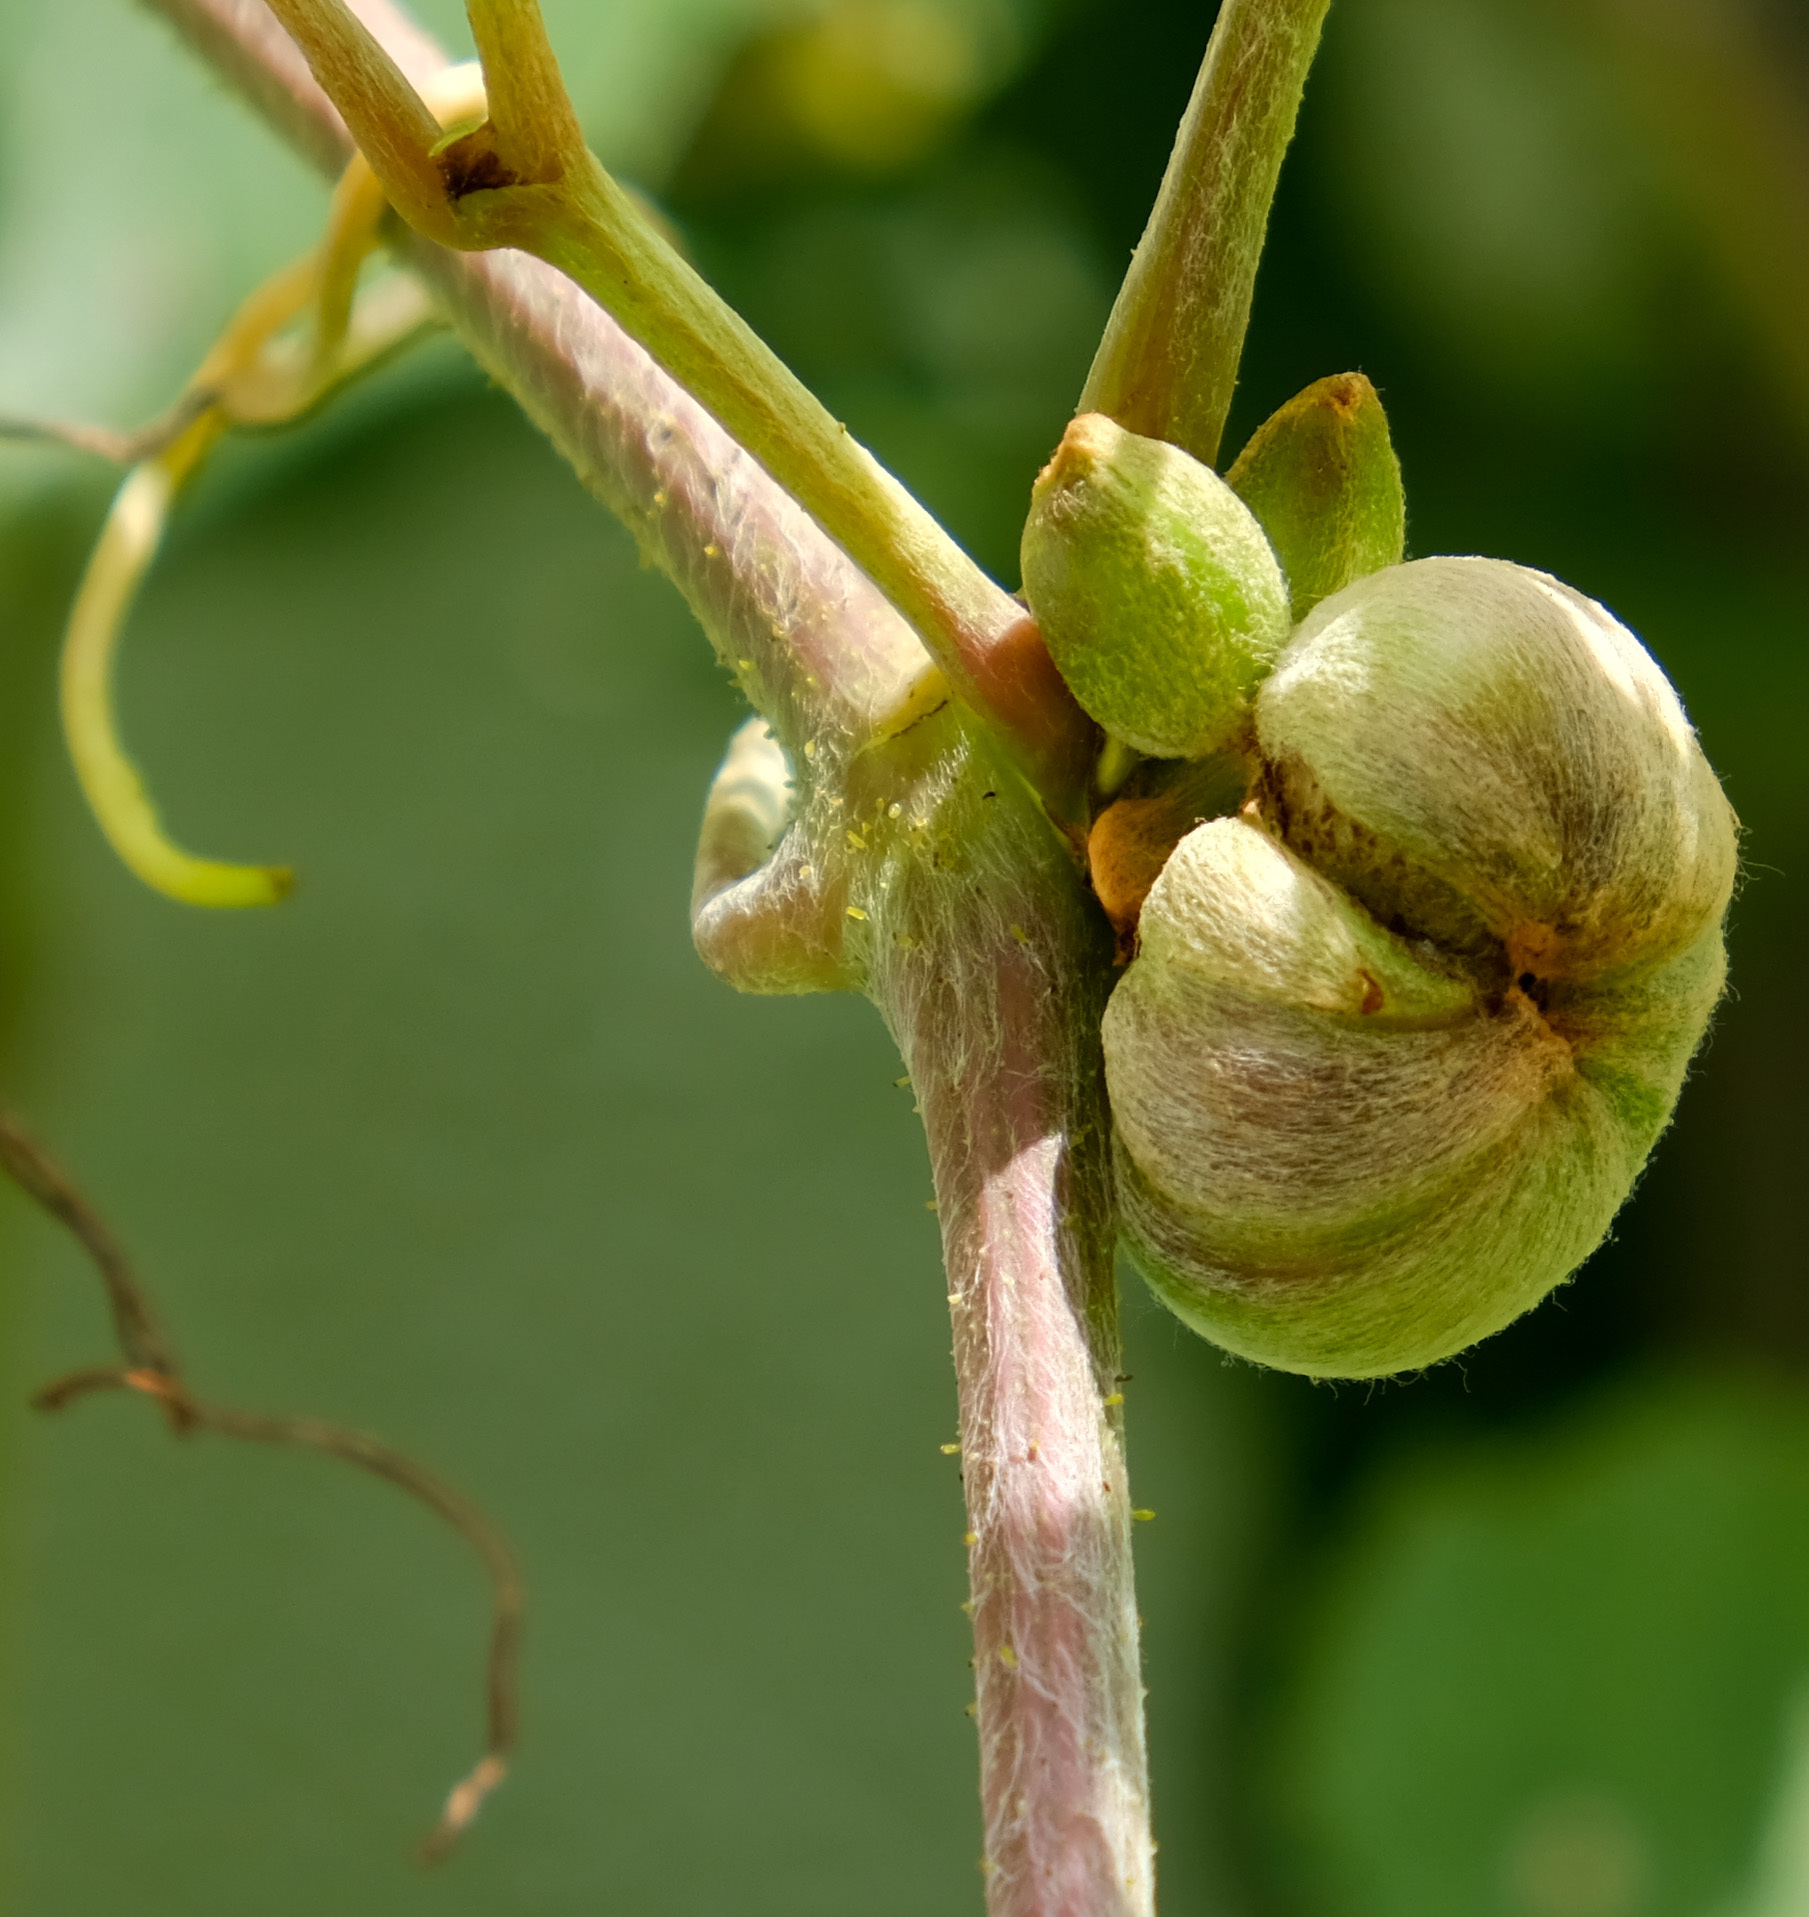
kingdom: Animalia
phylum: Arthropoda
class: Insecta
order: Diptera
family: Cecidomyiidae
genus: Ampelomyia
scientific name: Ampelomyia vitiscoryloides
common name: Grape filbert gall
